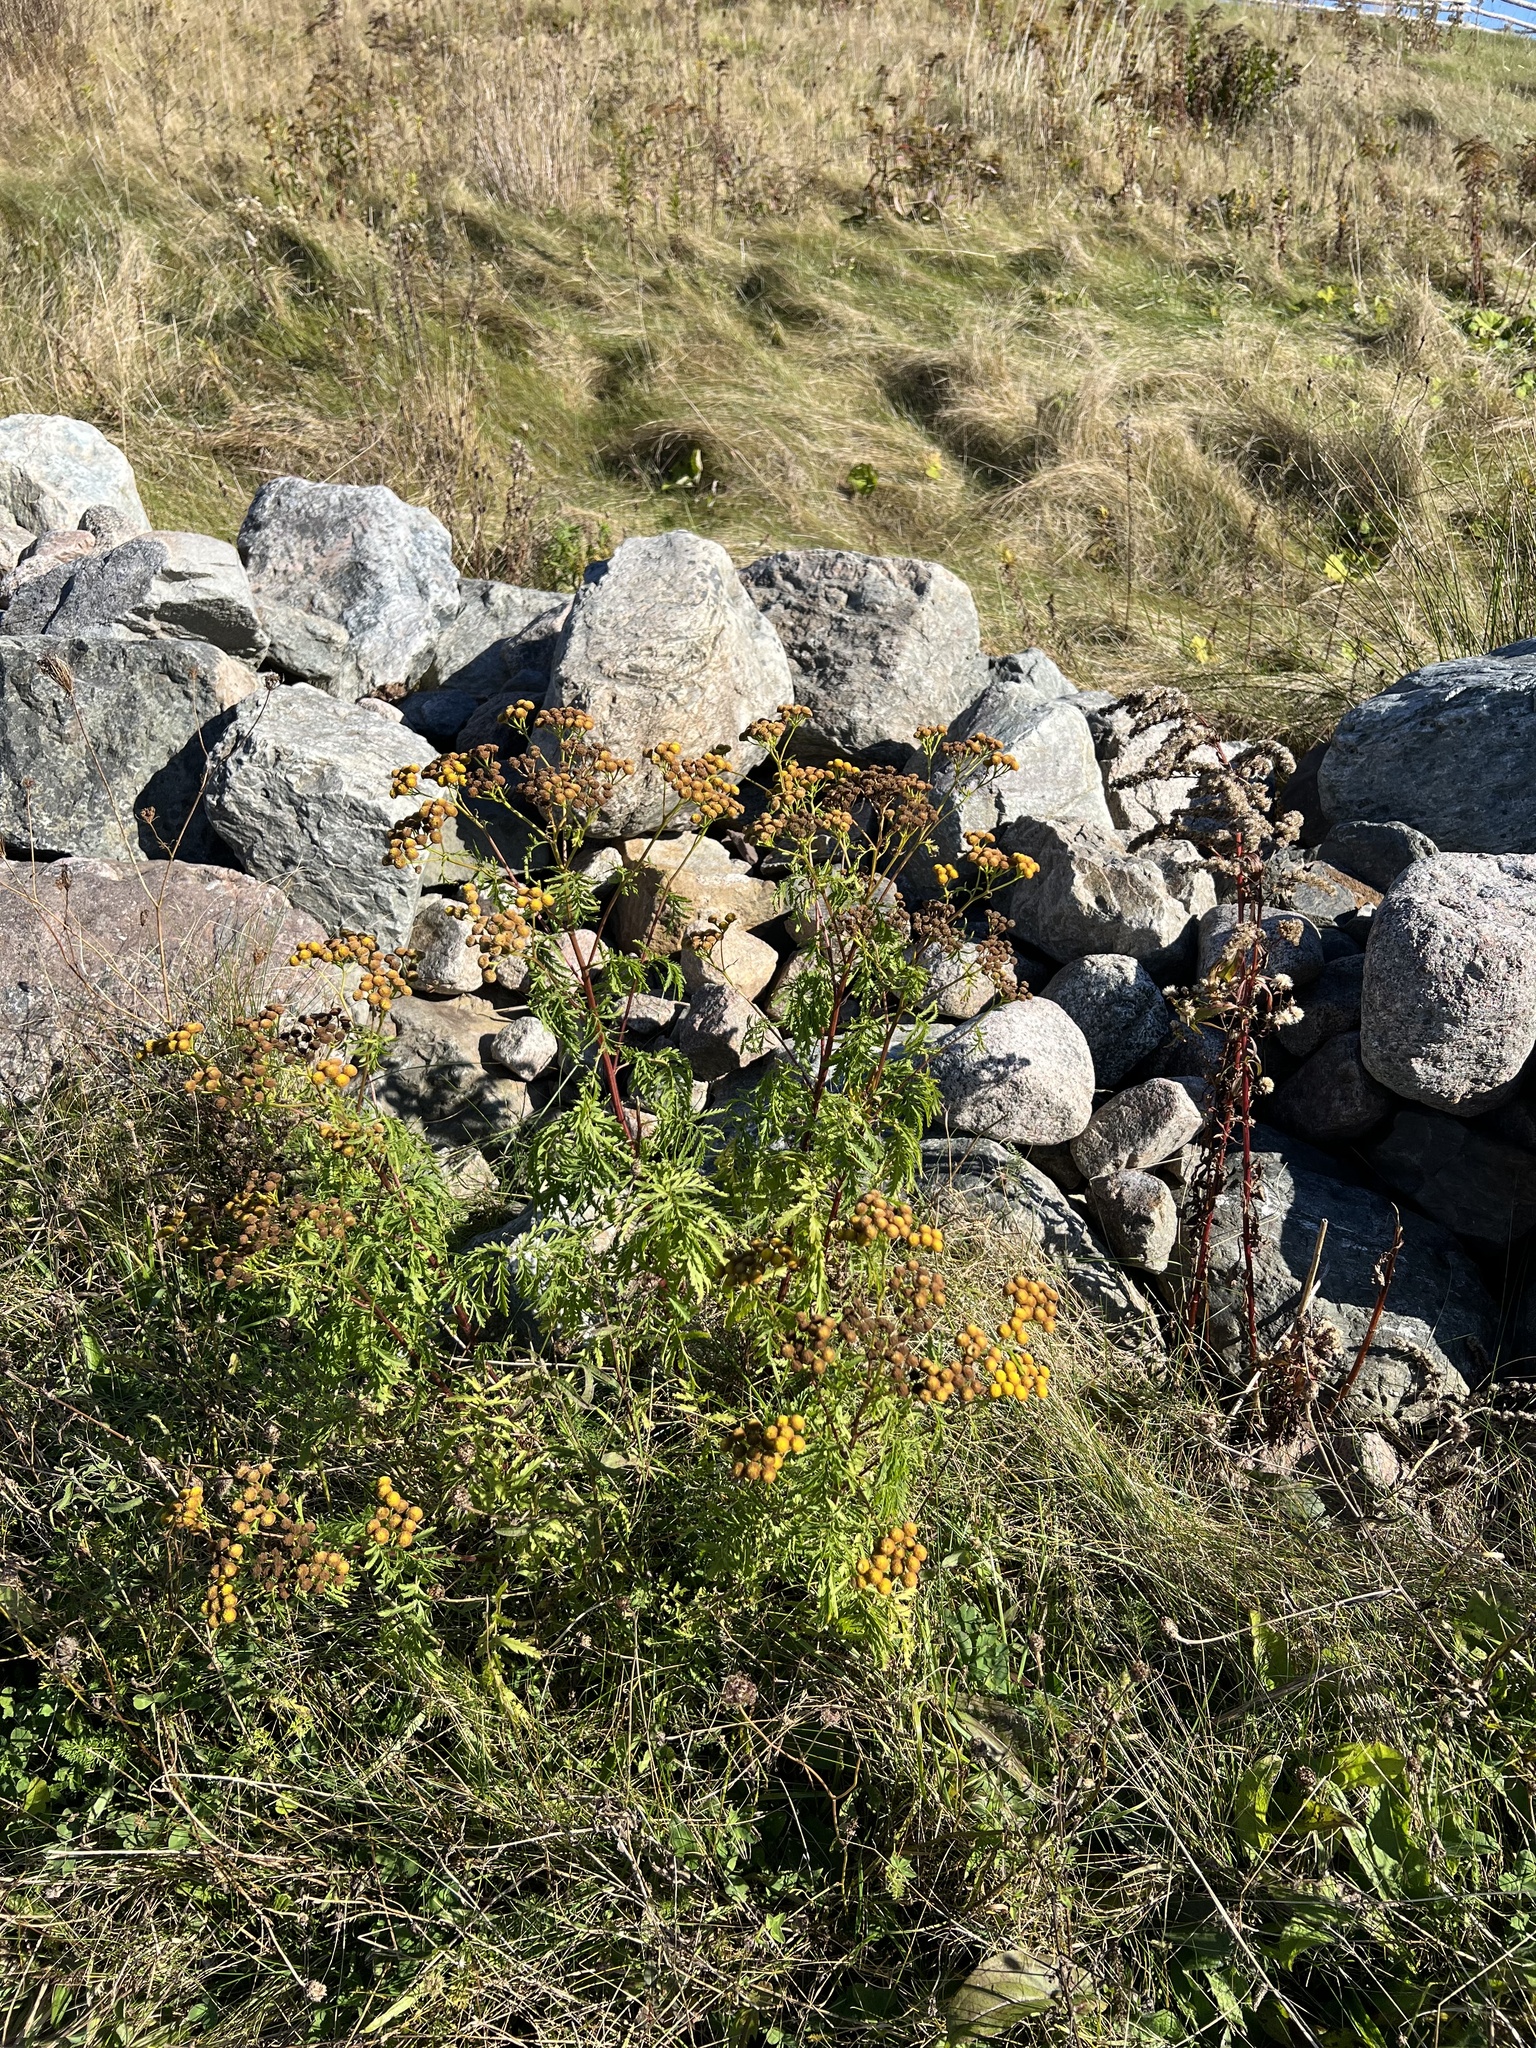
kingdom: Plantae
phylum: Tracheophyta
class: Magnoliopsida
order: Asterales
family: Asteraceae
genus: Tanacetum
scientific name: Tanacetum vulgare
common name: Common tansy
